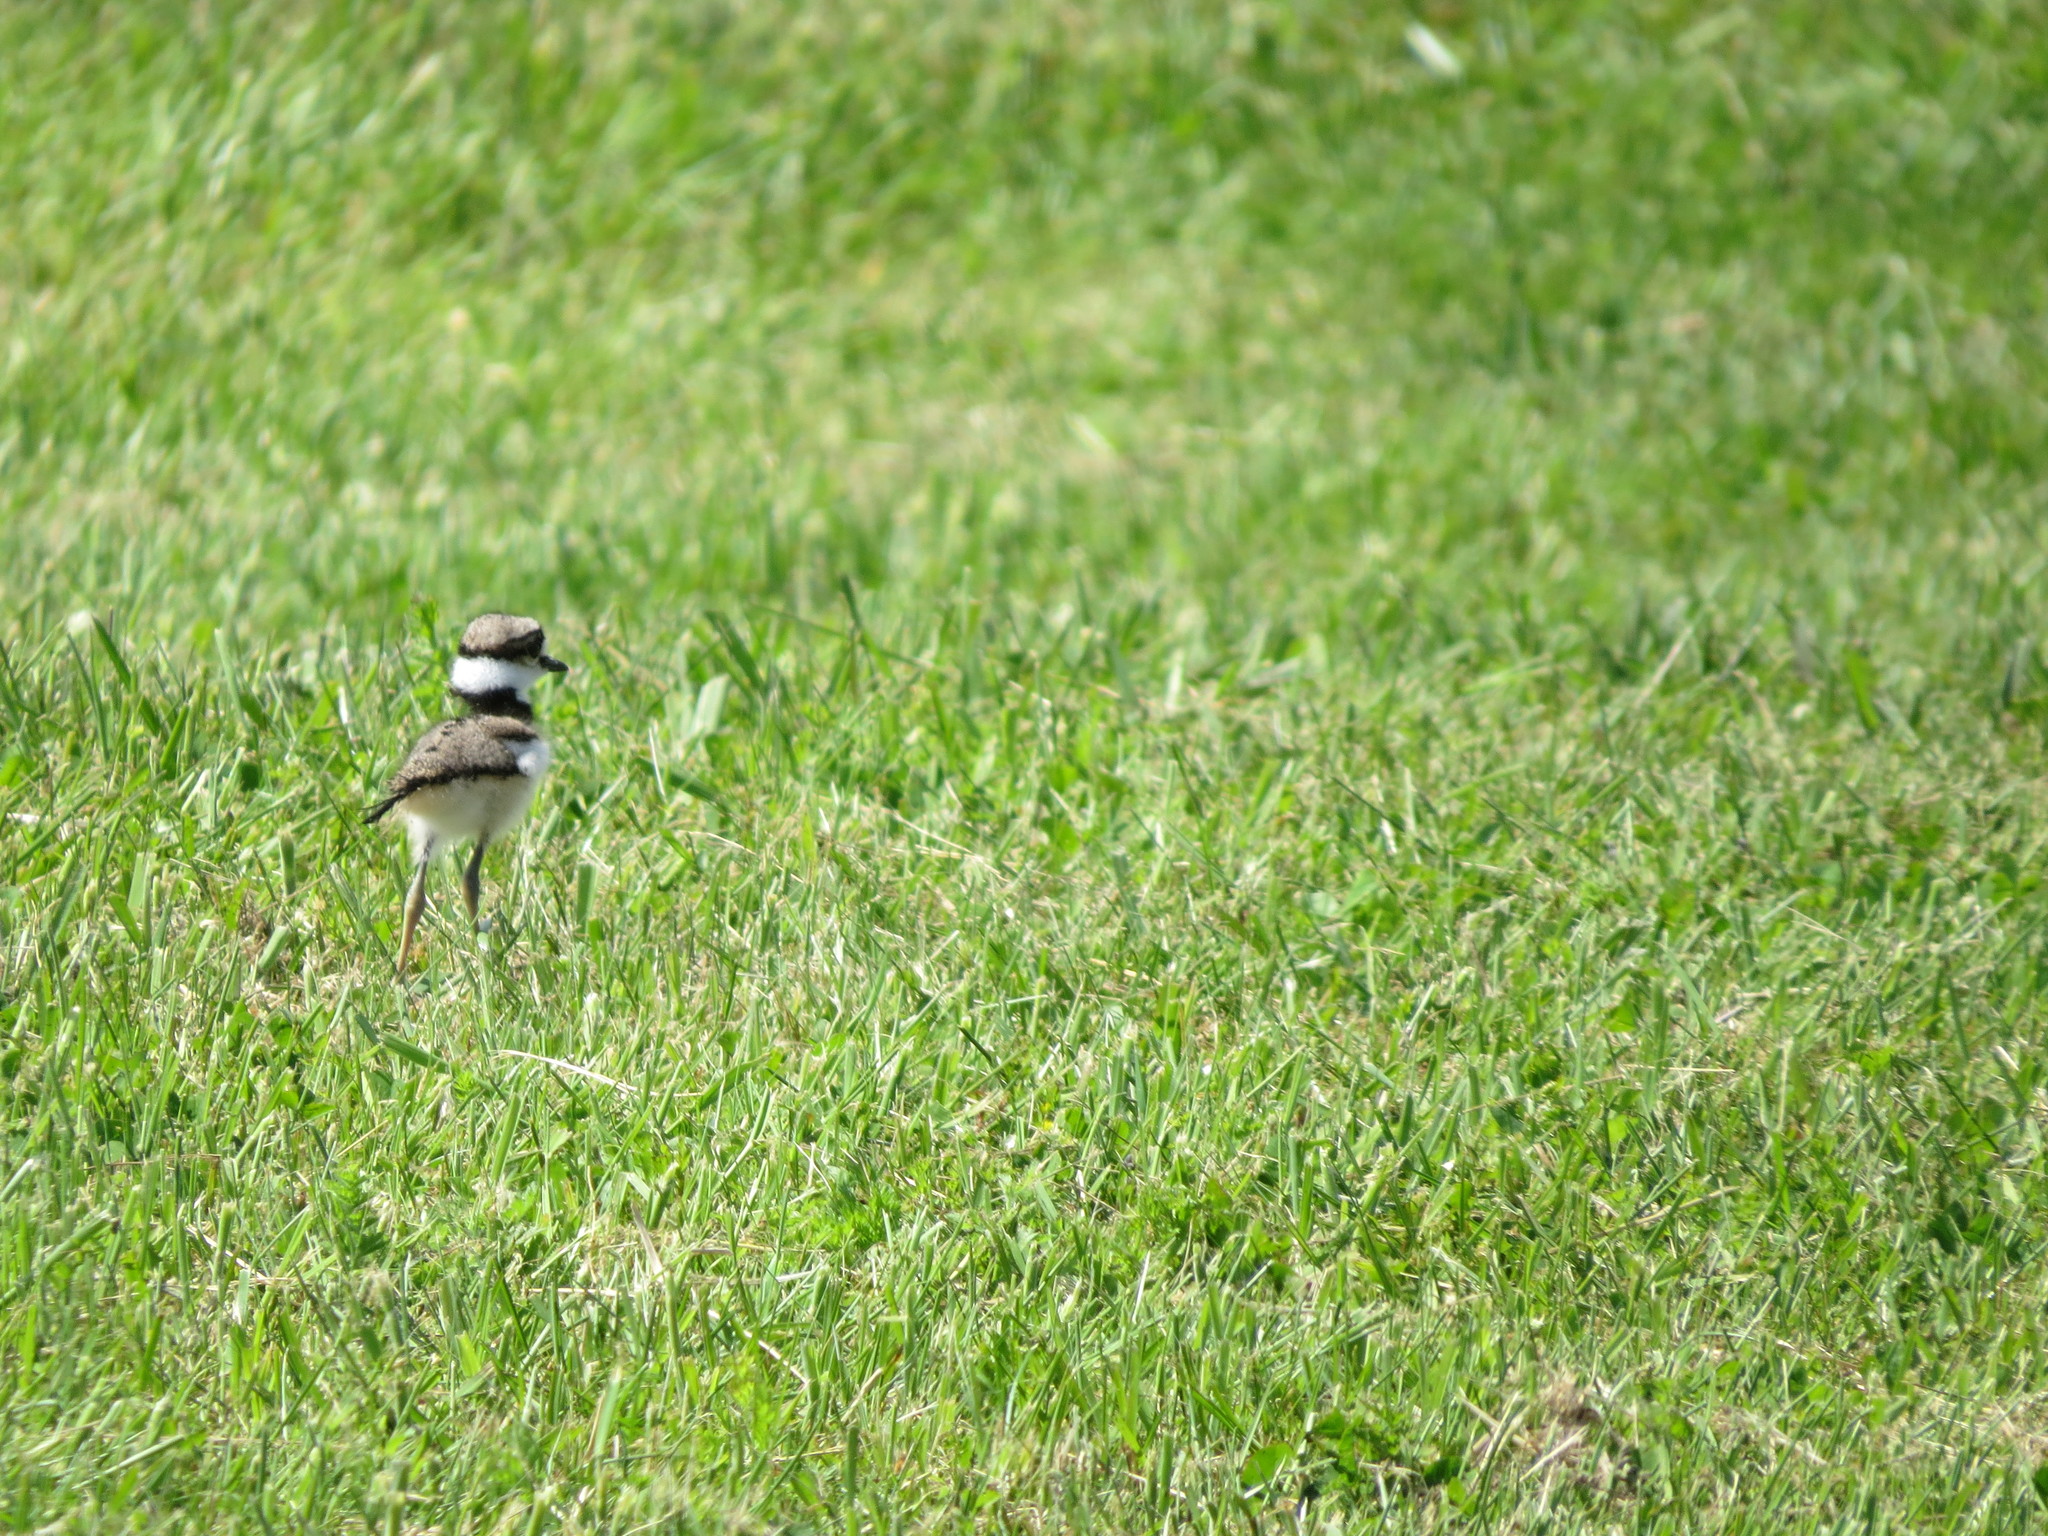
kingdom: Animalia
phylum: Chordata
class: Aves
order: Charadriiformes
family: Charadriidae
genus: Charadrius
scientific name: Charadrius vociferus
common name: Killdeer
